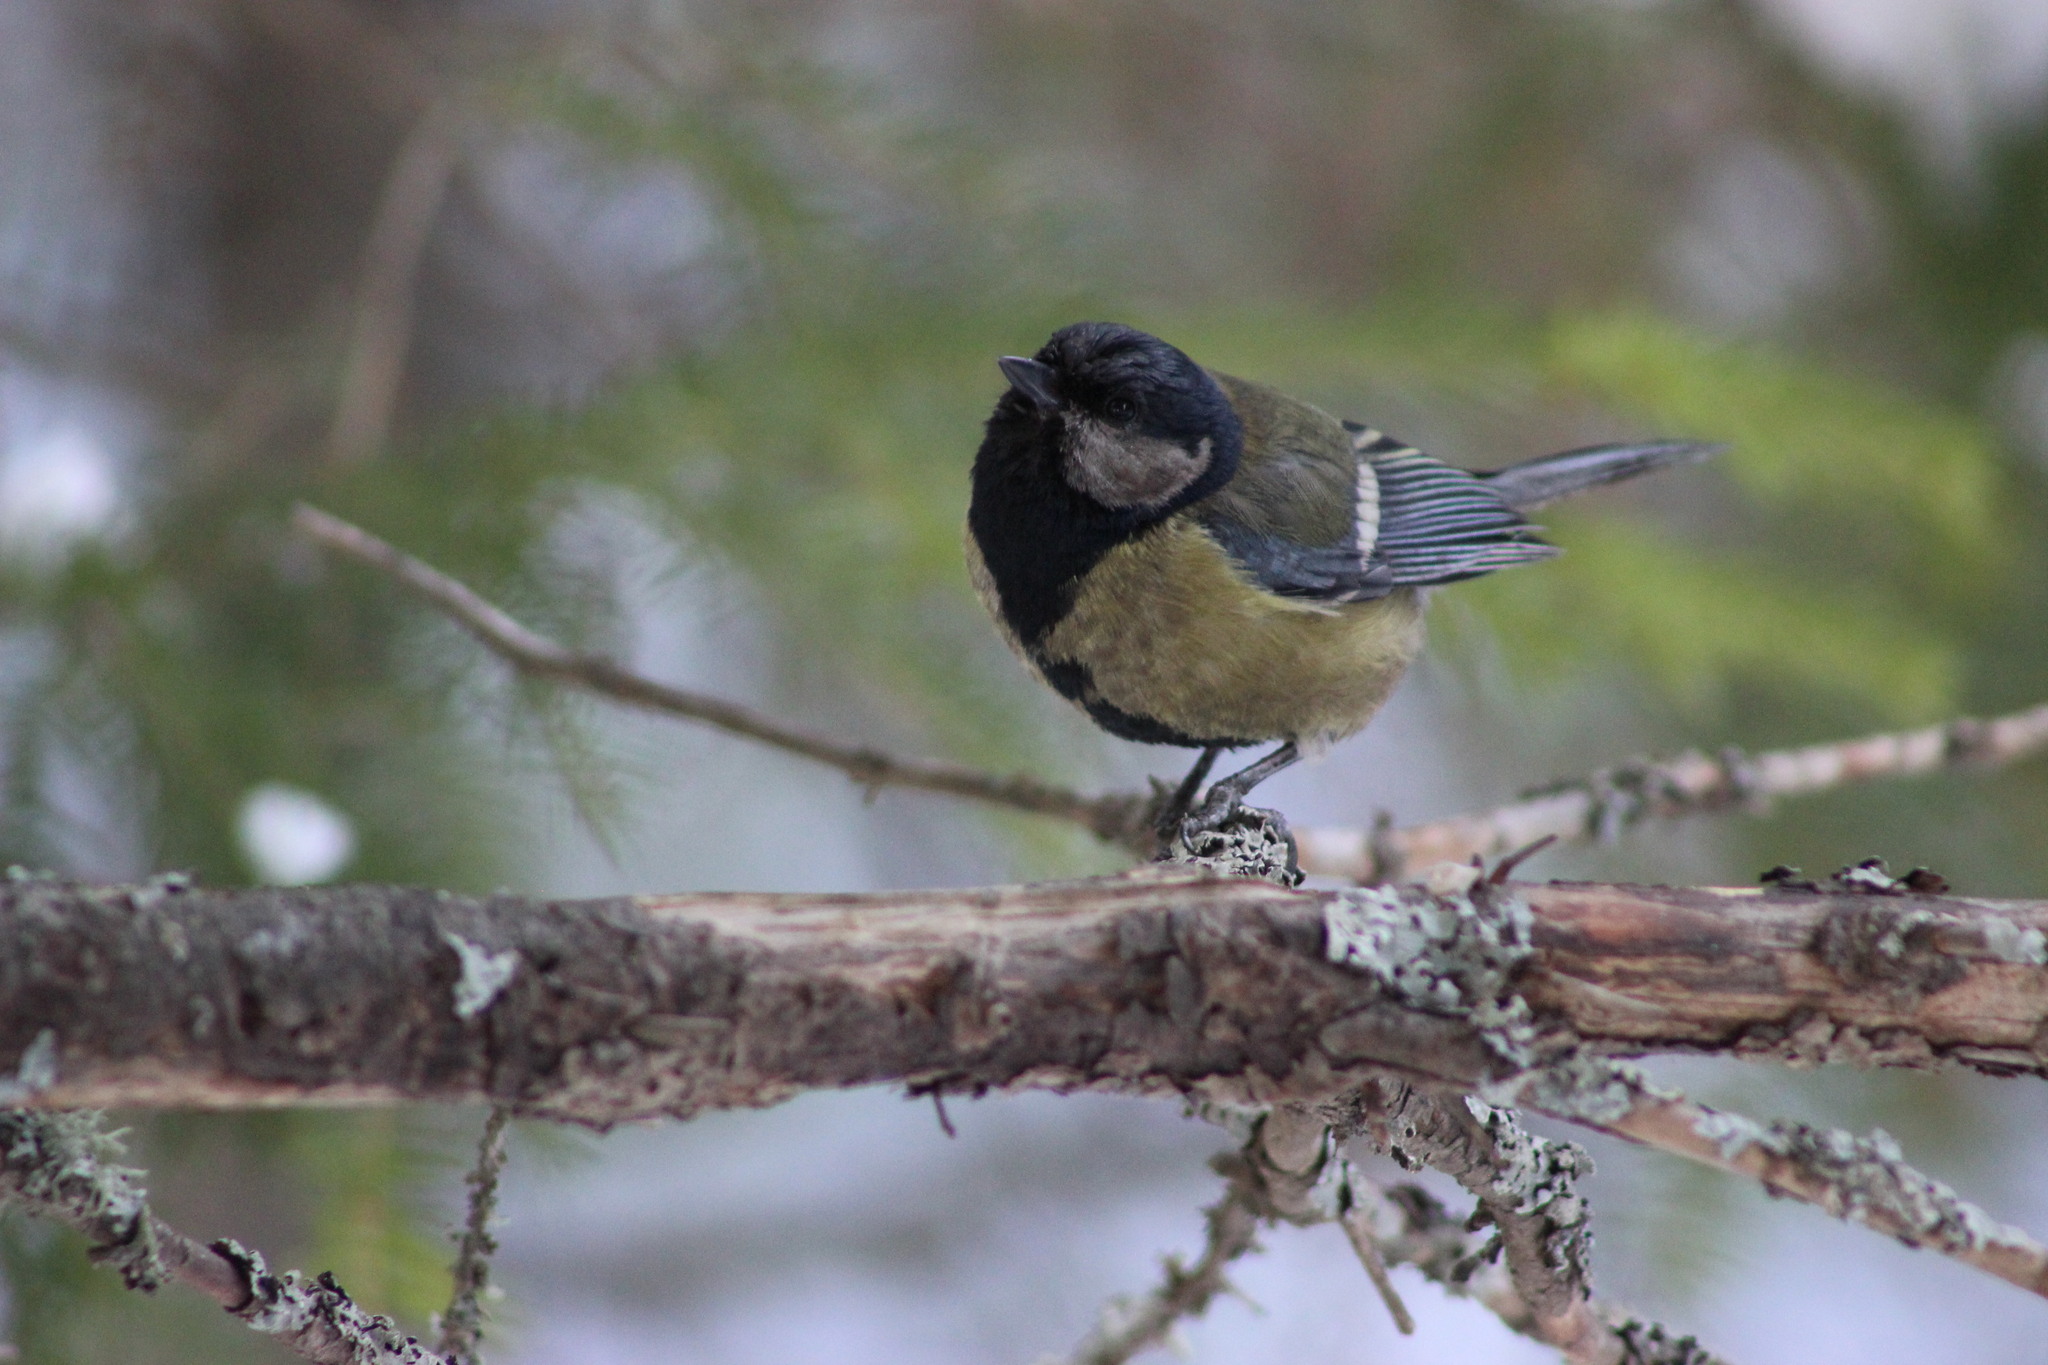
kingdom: Animalia
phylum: Chordata
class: Aves
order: Passeriformes
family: Paridae
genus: Parus
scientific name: Parus major
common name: Great tit
